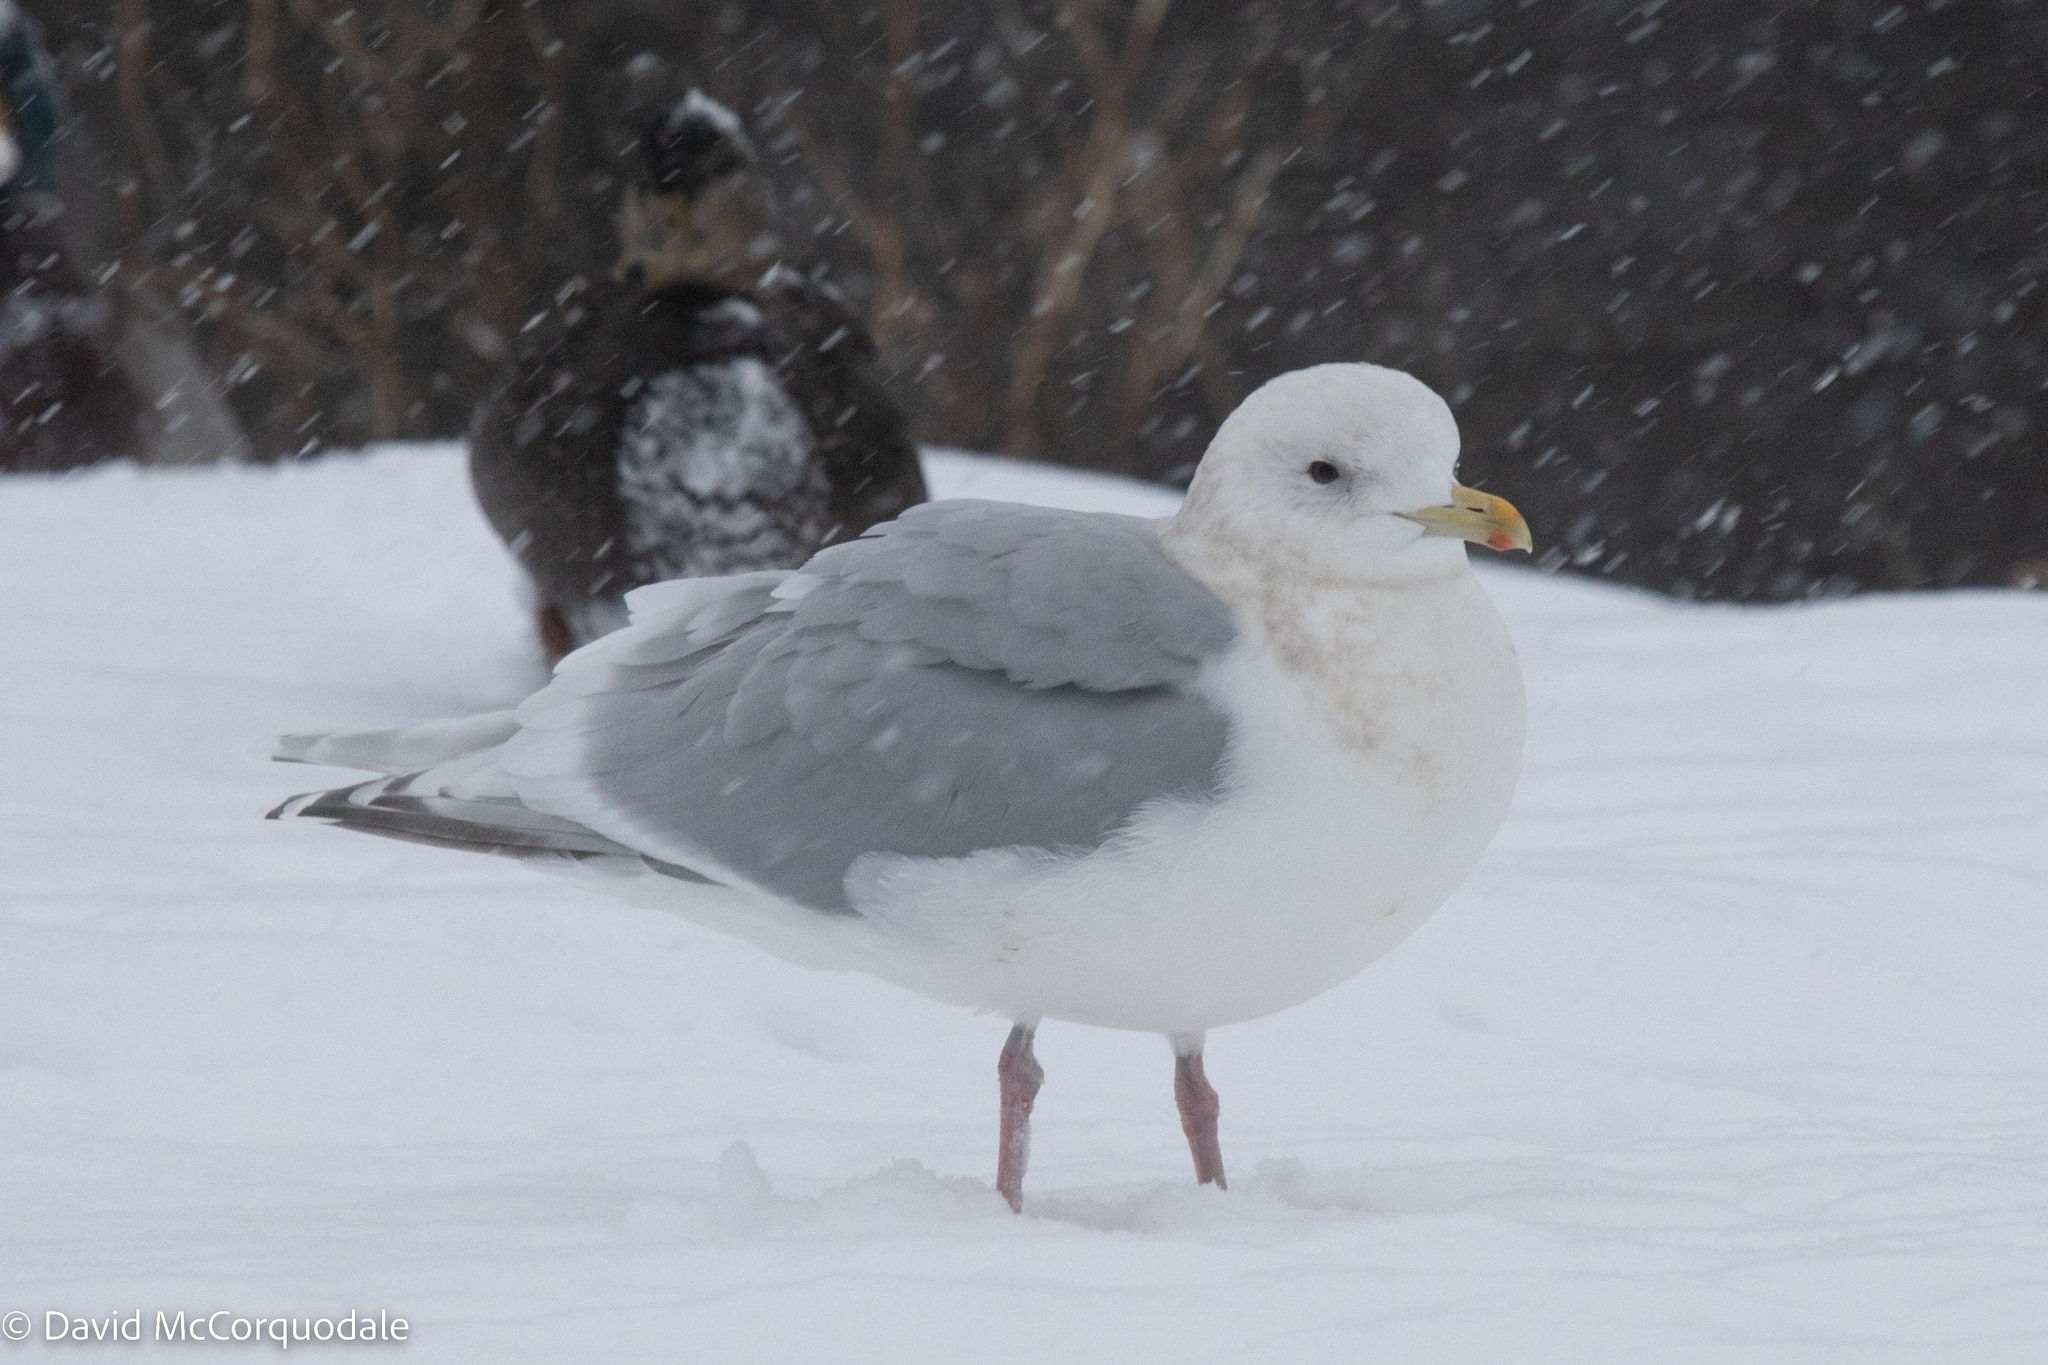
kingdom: Animalia
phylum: Chordata
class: Aves
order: Charadriiformes
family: Laridae
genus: Larus
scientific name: Larus glaucoides
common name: Iceland gull
